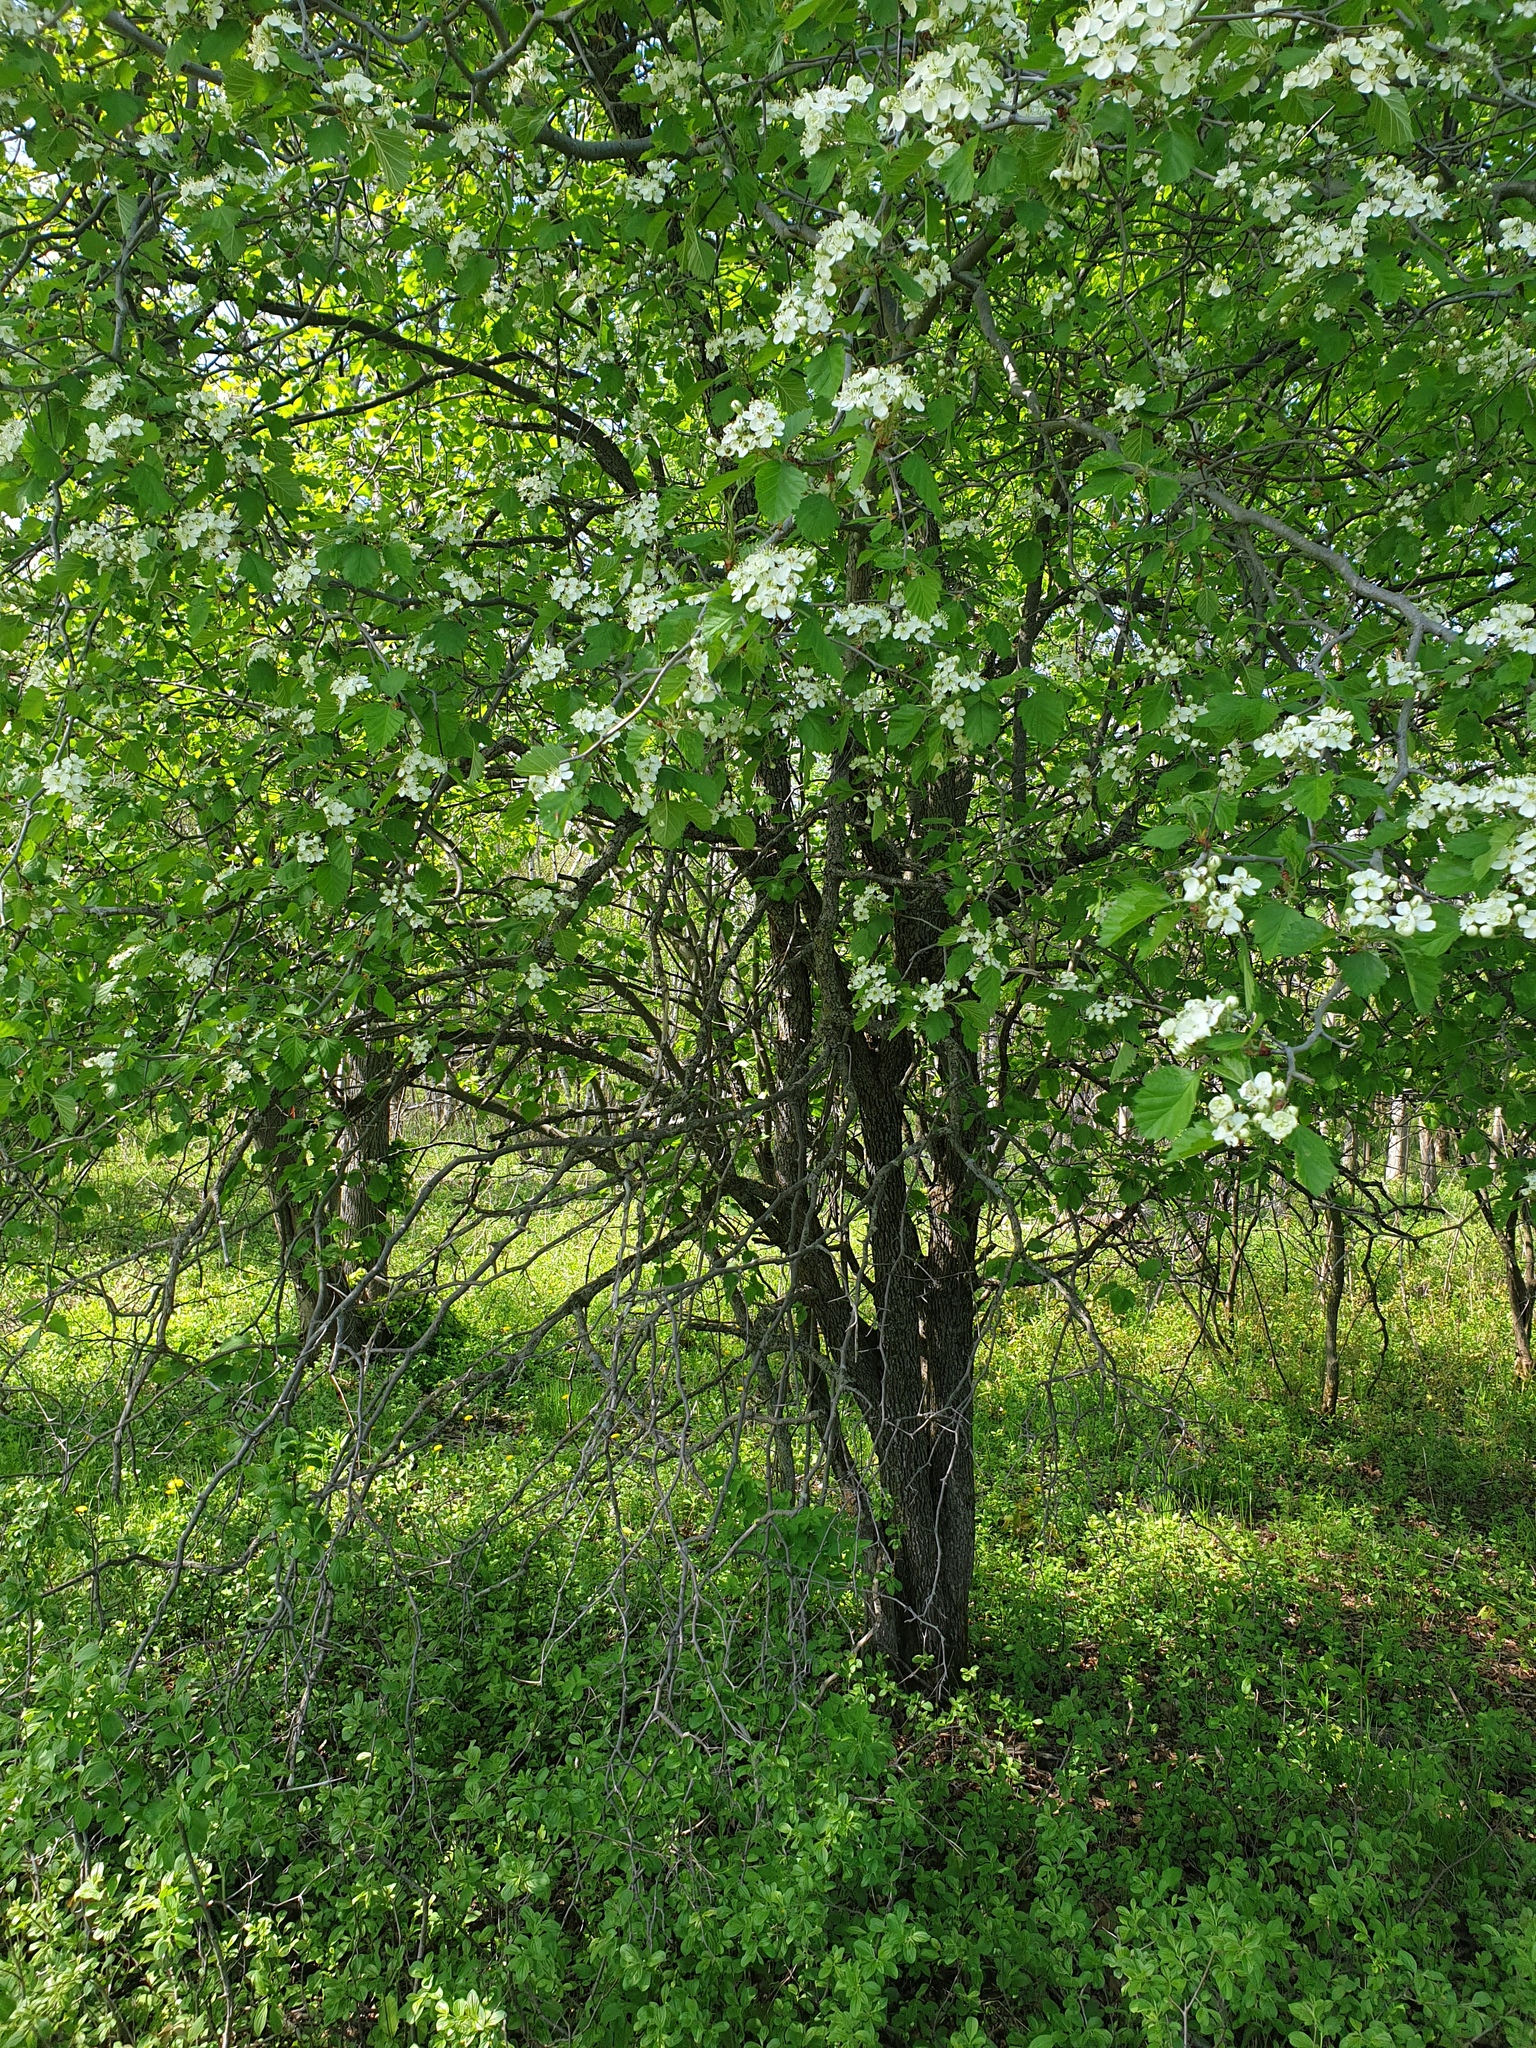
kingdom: Plantae
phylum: Tracheophyta
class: Magnoliopsida
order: Rosales
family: Rosaceae
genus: Crataegus
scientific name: Crataegus submollis
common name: Hairy cockspurthorn
